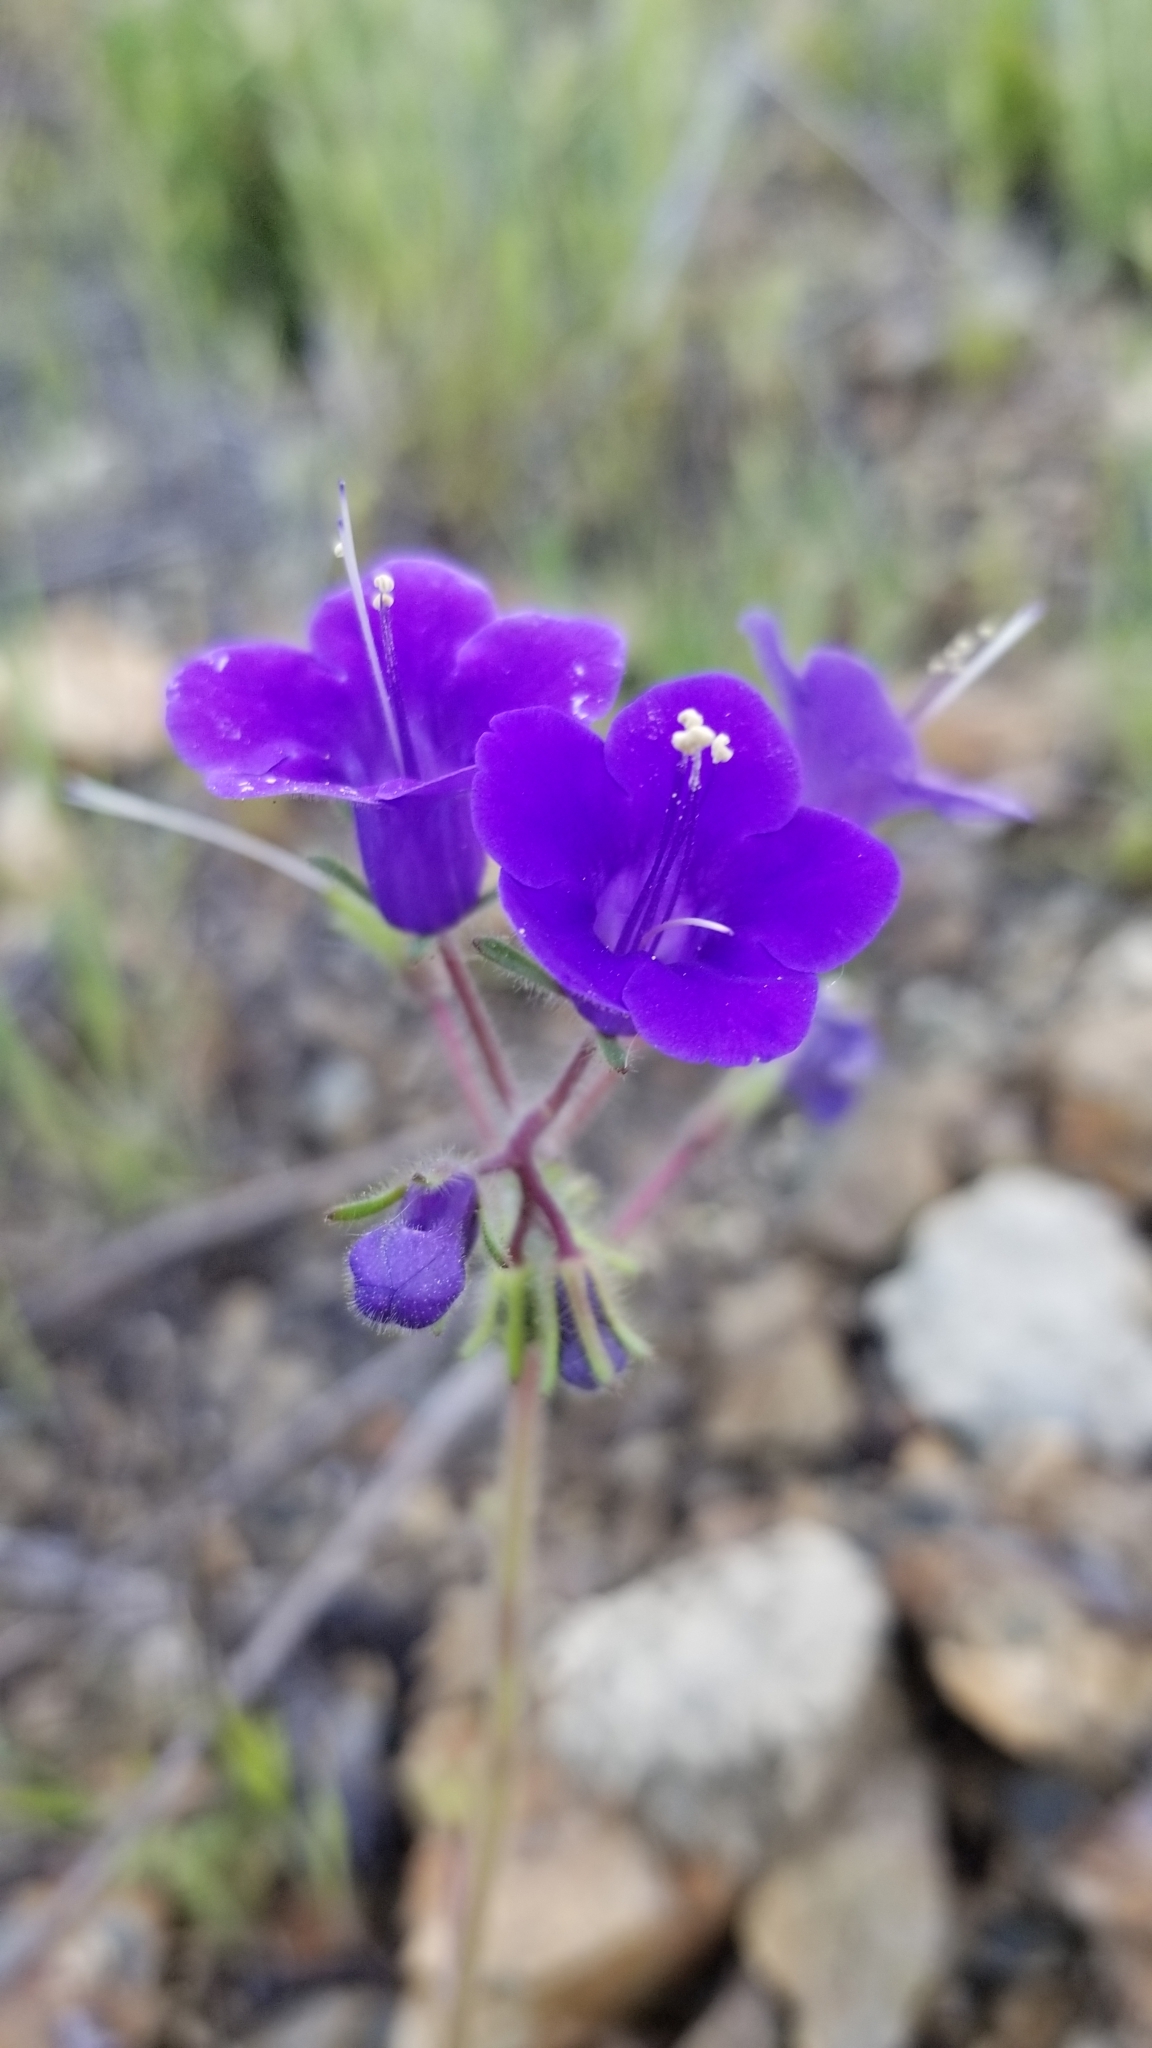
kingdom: Plantae
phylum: Tracheophyta
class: Magnoliopsida
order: Boraginales
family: Hydrophyllaceae
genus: Phacelia
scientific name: Phacelia minor
